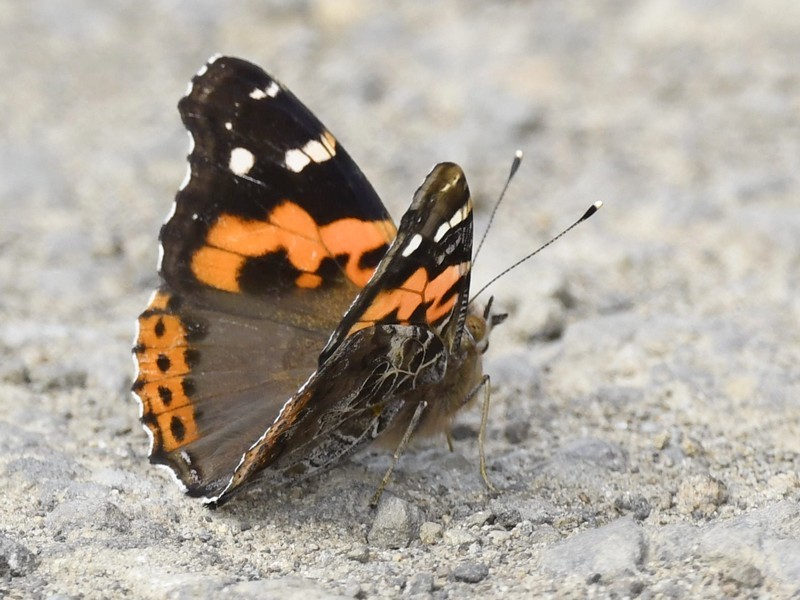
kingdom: Animalia
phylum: Arthropoda
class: Insecta
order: Lepidoptera
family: Nymphalidae
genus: Vanessa
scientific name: Vanessa indica
